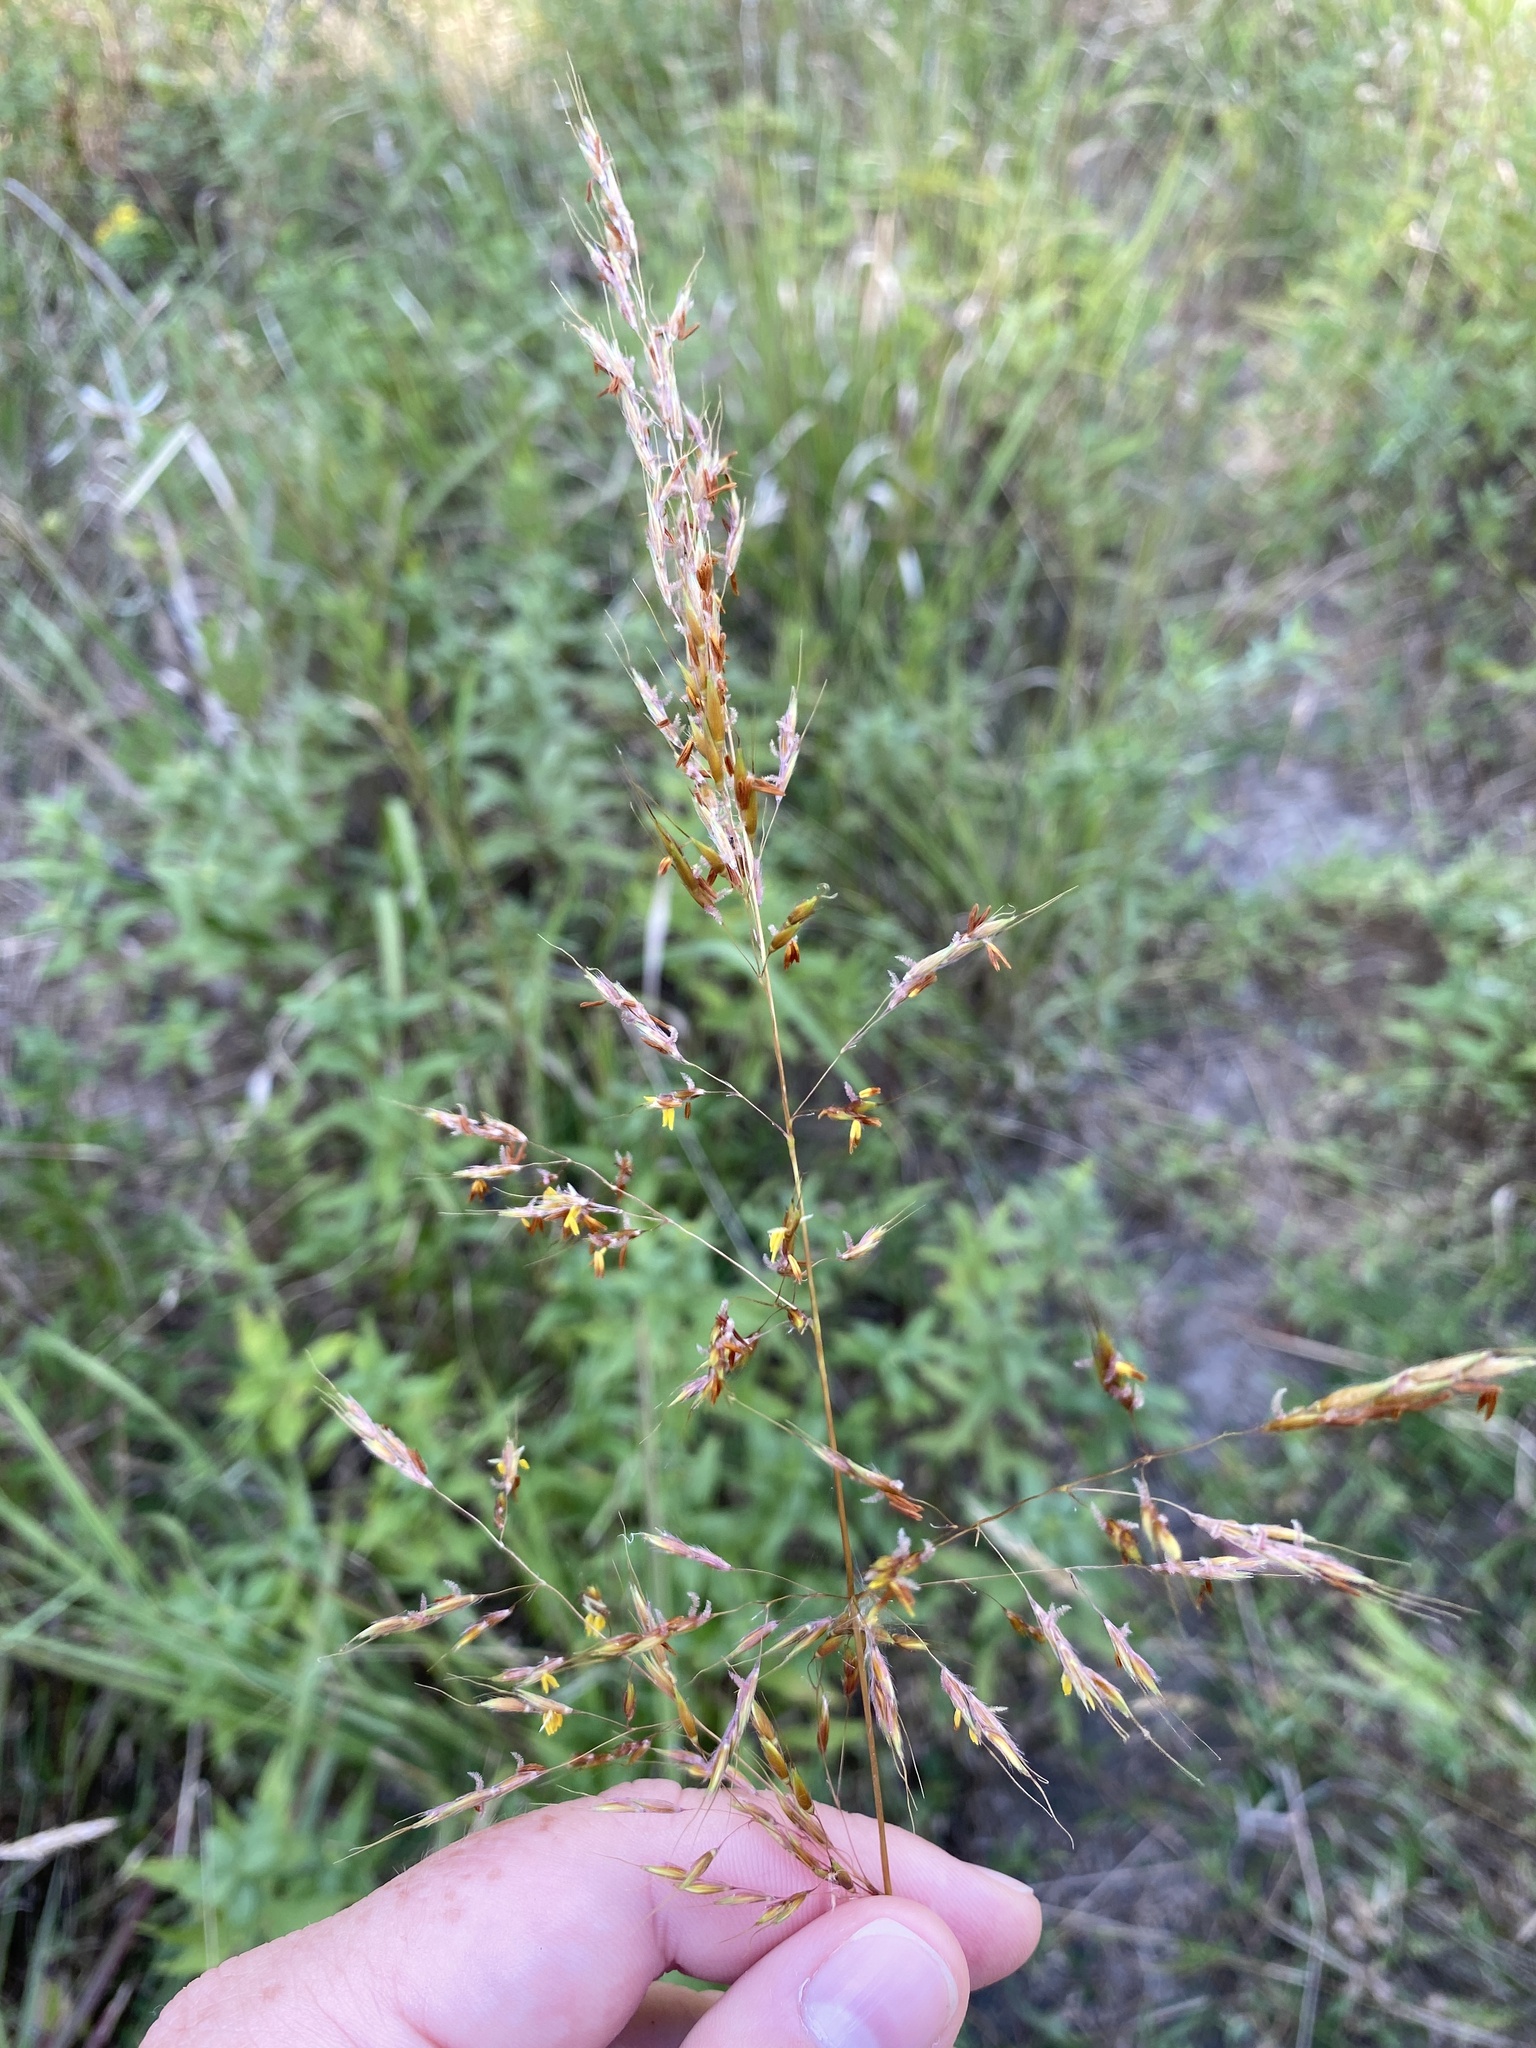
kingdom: Plantae
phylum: Tracheophyta
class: Liliopsida
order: Poales
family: Poaceae
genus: Sorghastrum
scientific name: Sorghastrum nutans
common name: Indian grass
